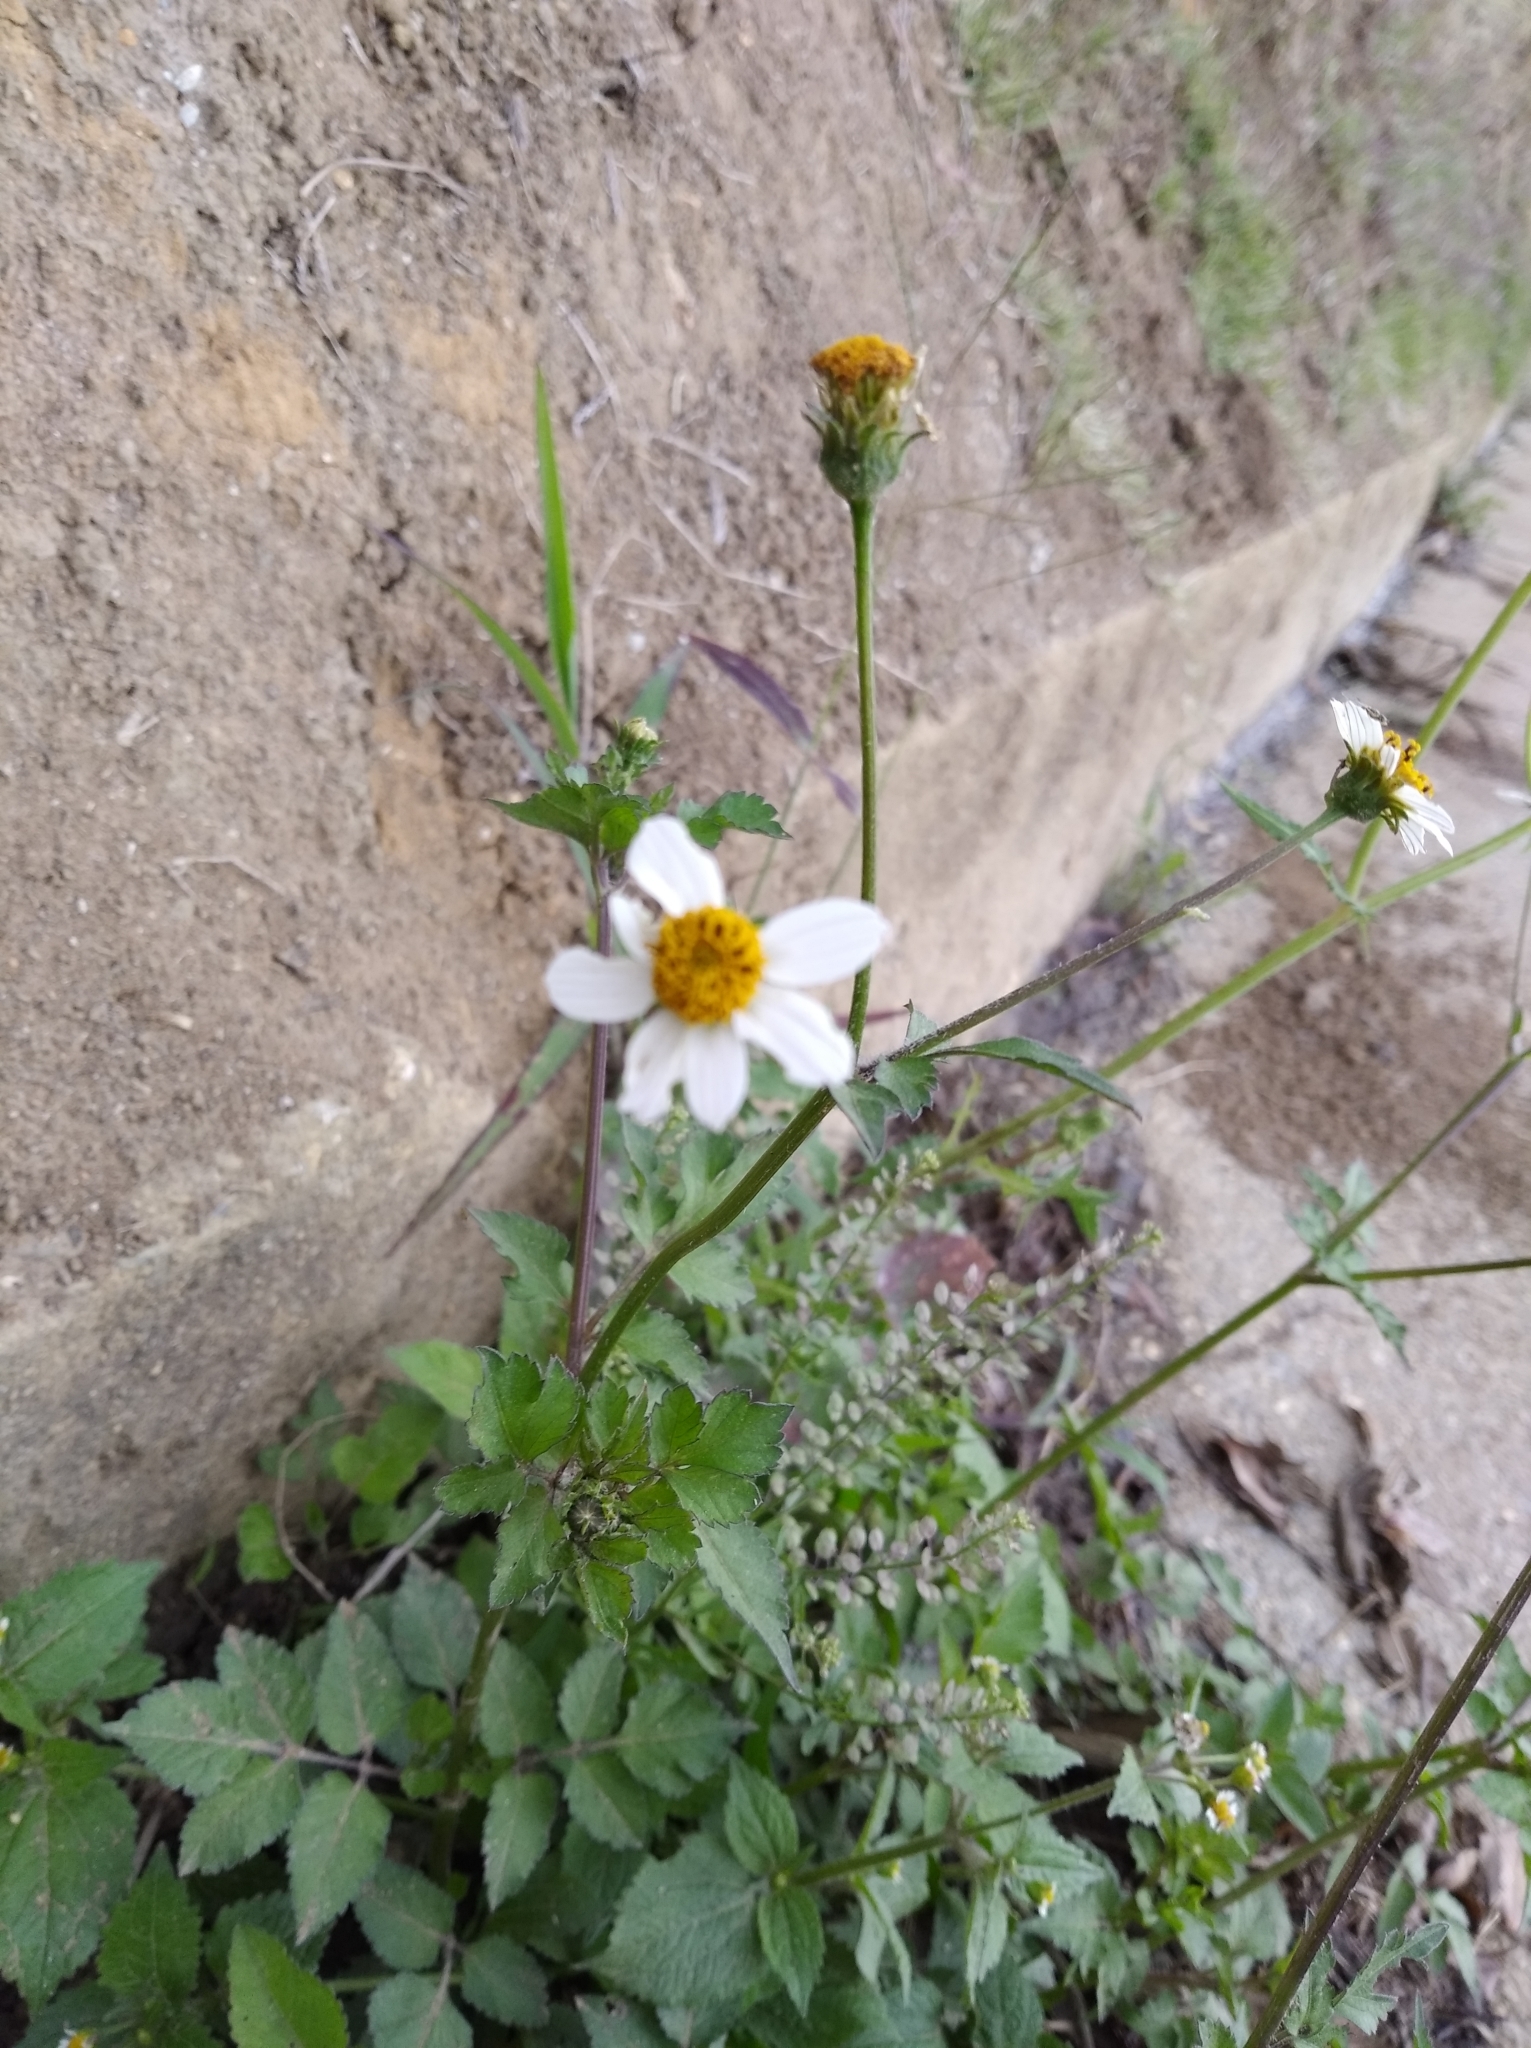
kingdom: Plantae
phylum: Tracheophyta
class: Magnoliopsida
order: Asterales
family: Asteraceae
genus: Bidens
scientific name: Bidens pilosa
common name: Black-jack
